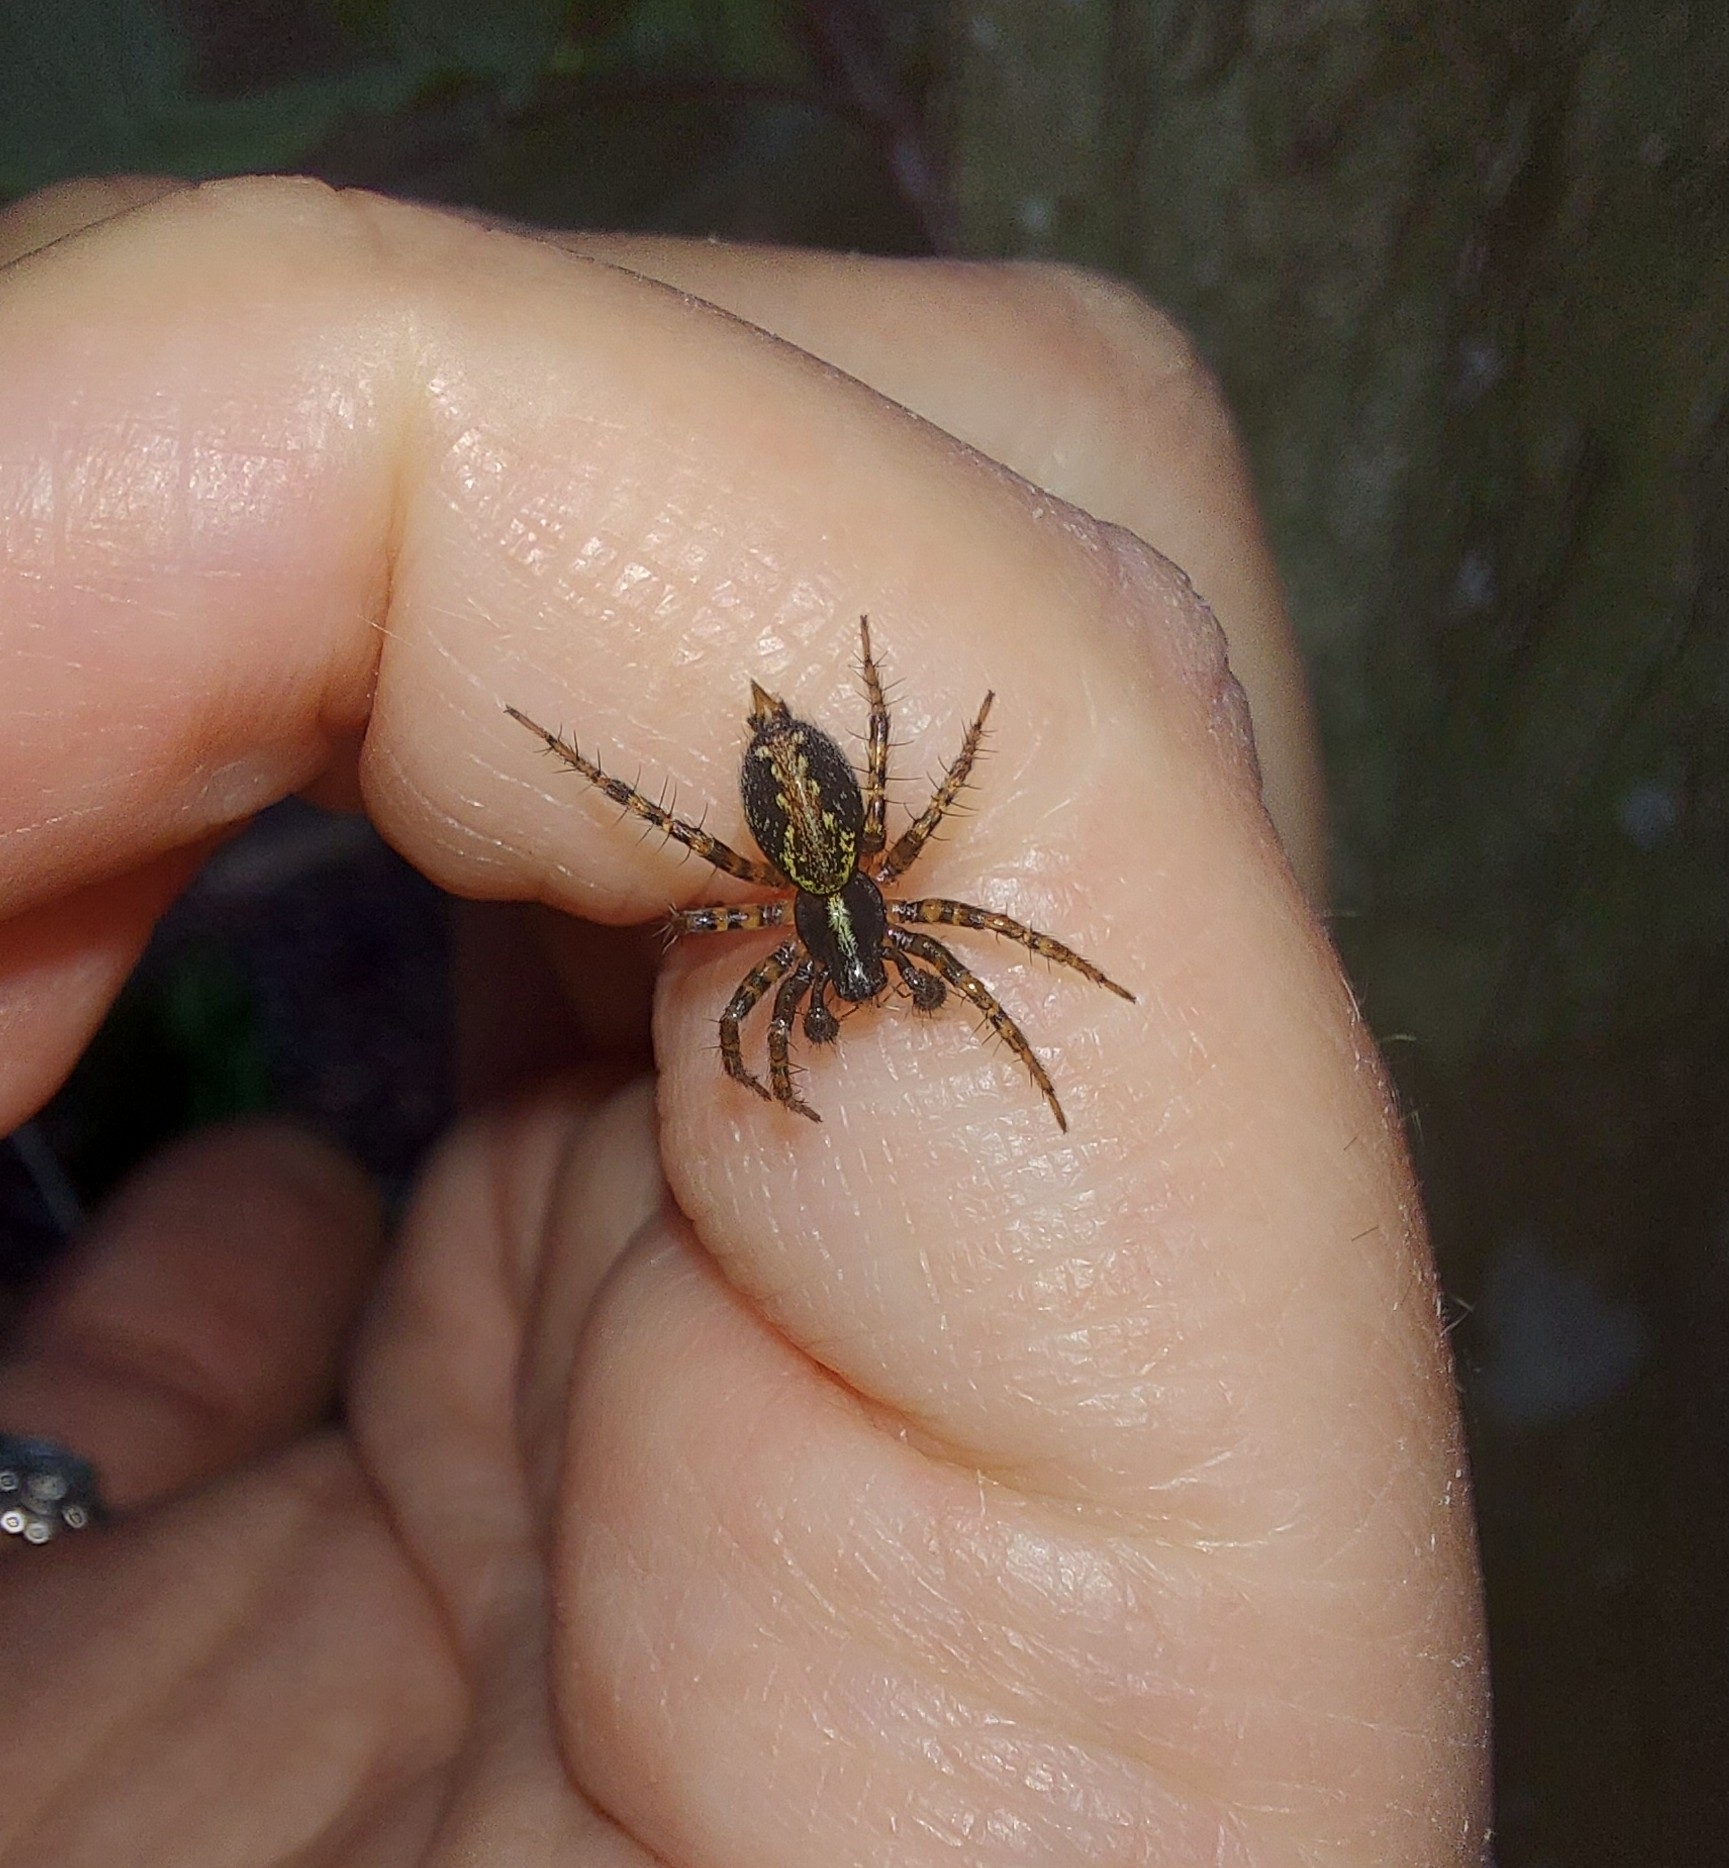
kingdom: Animalia
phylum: Arthropoda
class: Arachnida
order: Araneae
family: Agelenidae
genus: Textrix
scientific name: Textrix denticulata
